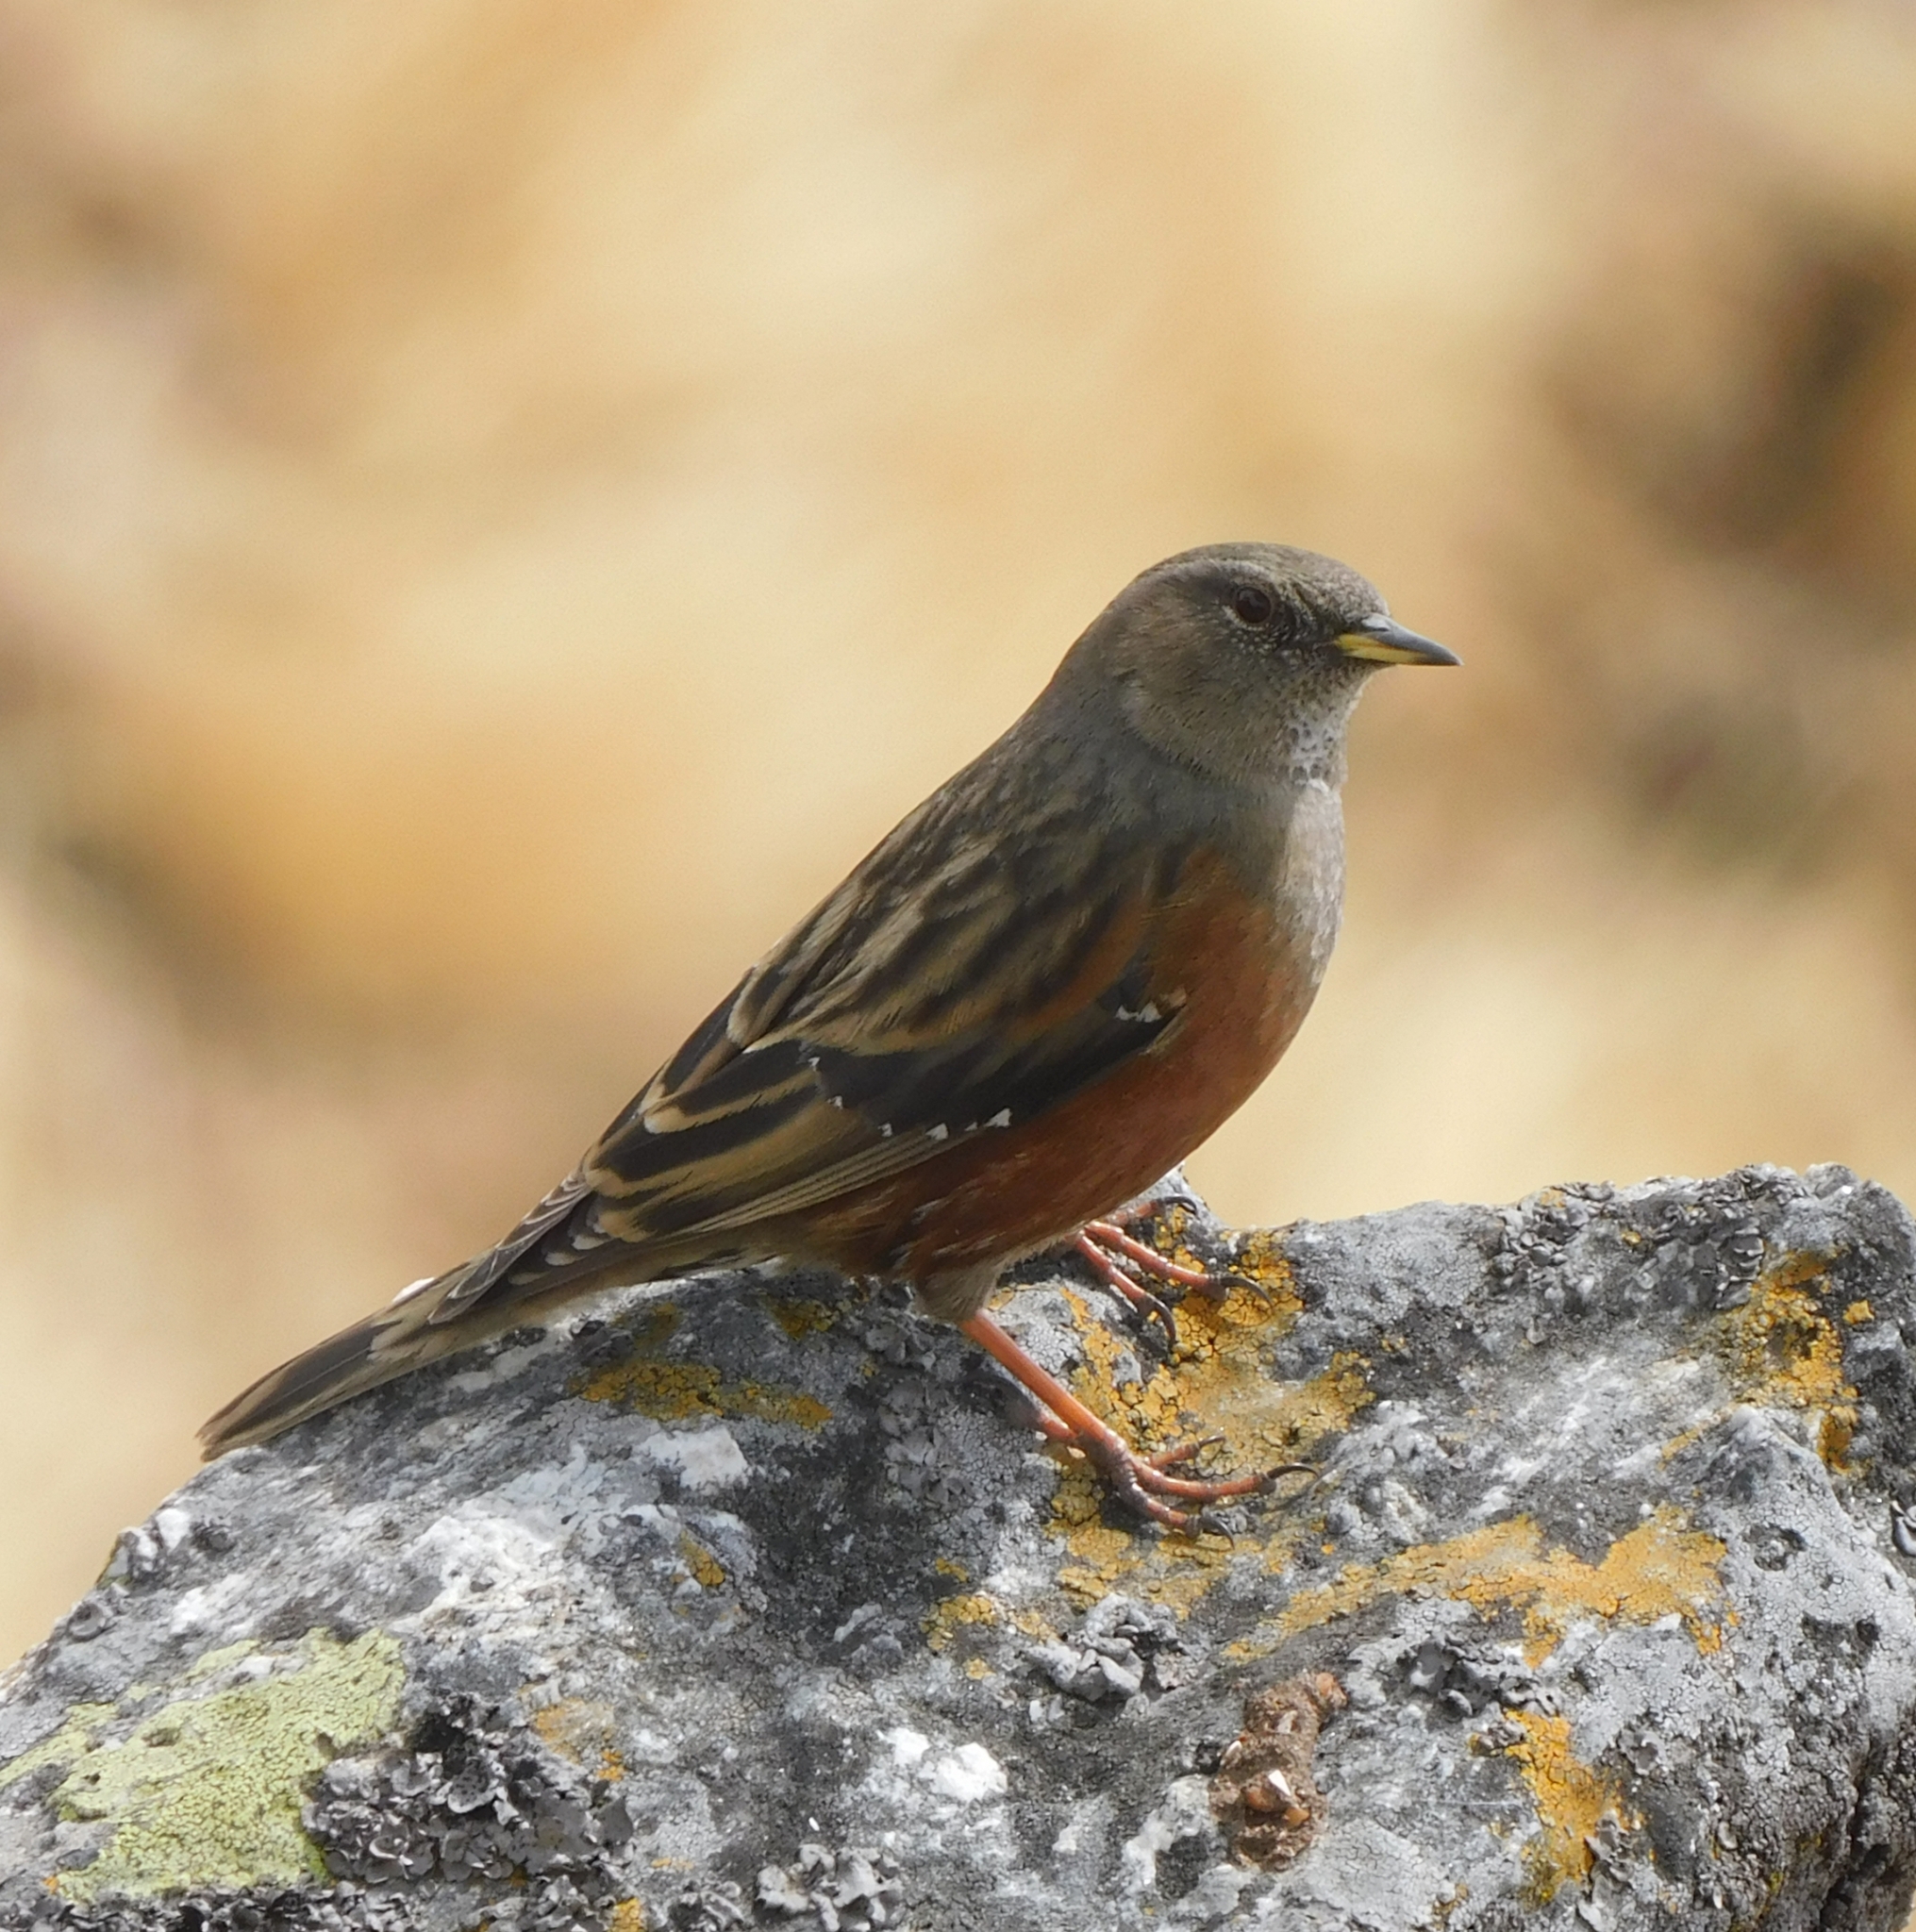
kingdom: Animalia
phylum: Chordata
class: Aves
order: Passeriformes
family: Prunellidae
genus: Prunella
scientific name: Prunella collaris
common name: Alpine accentor
